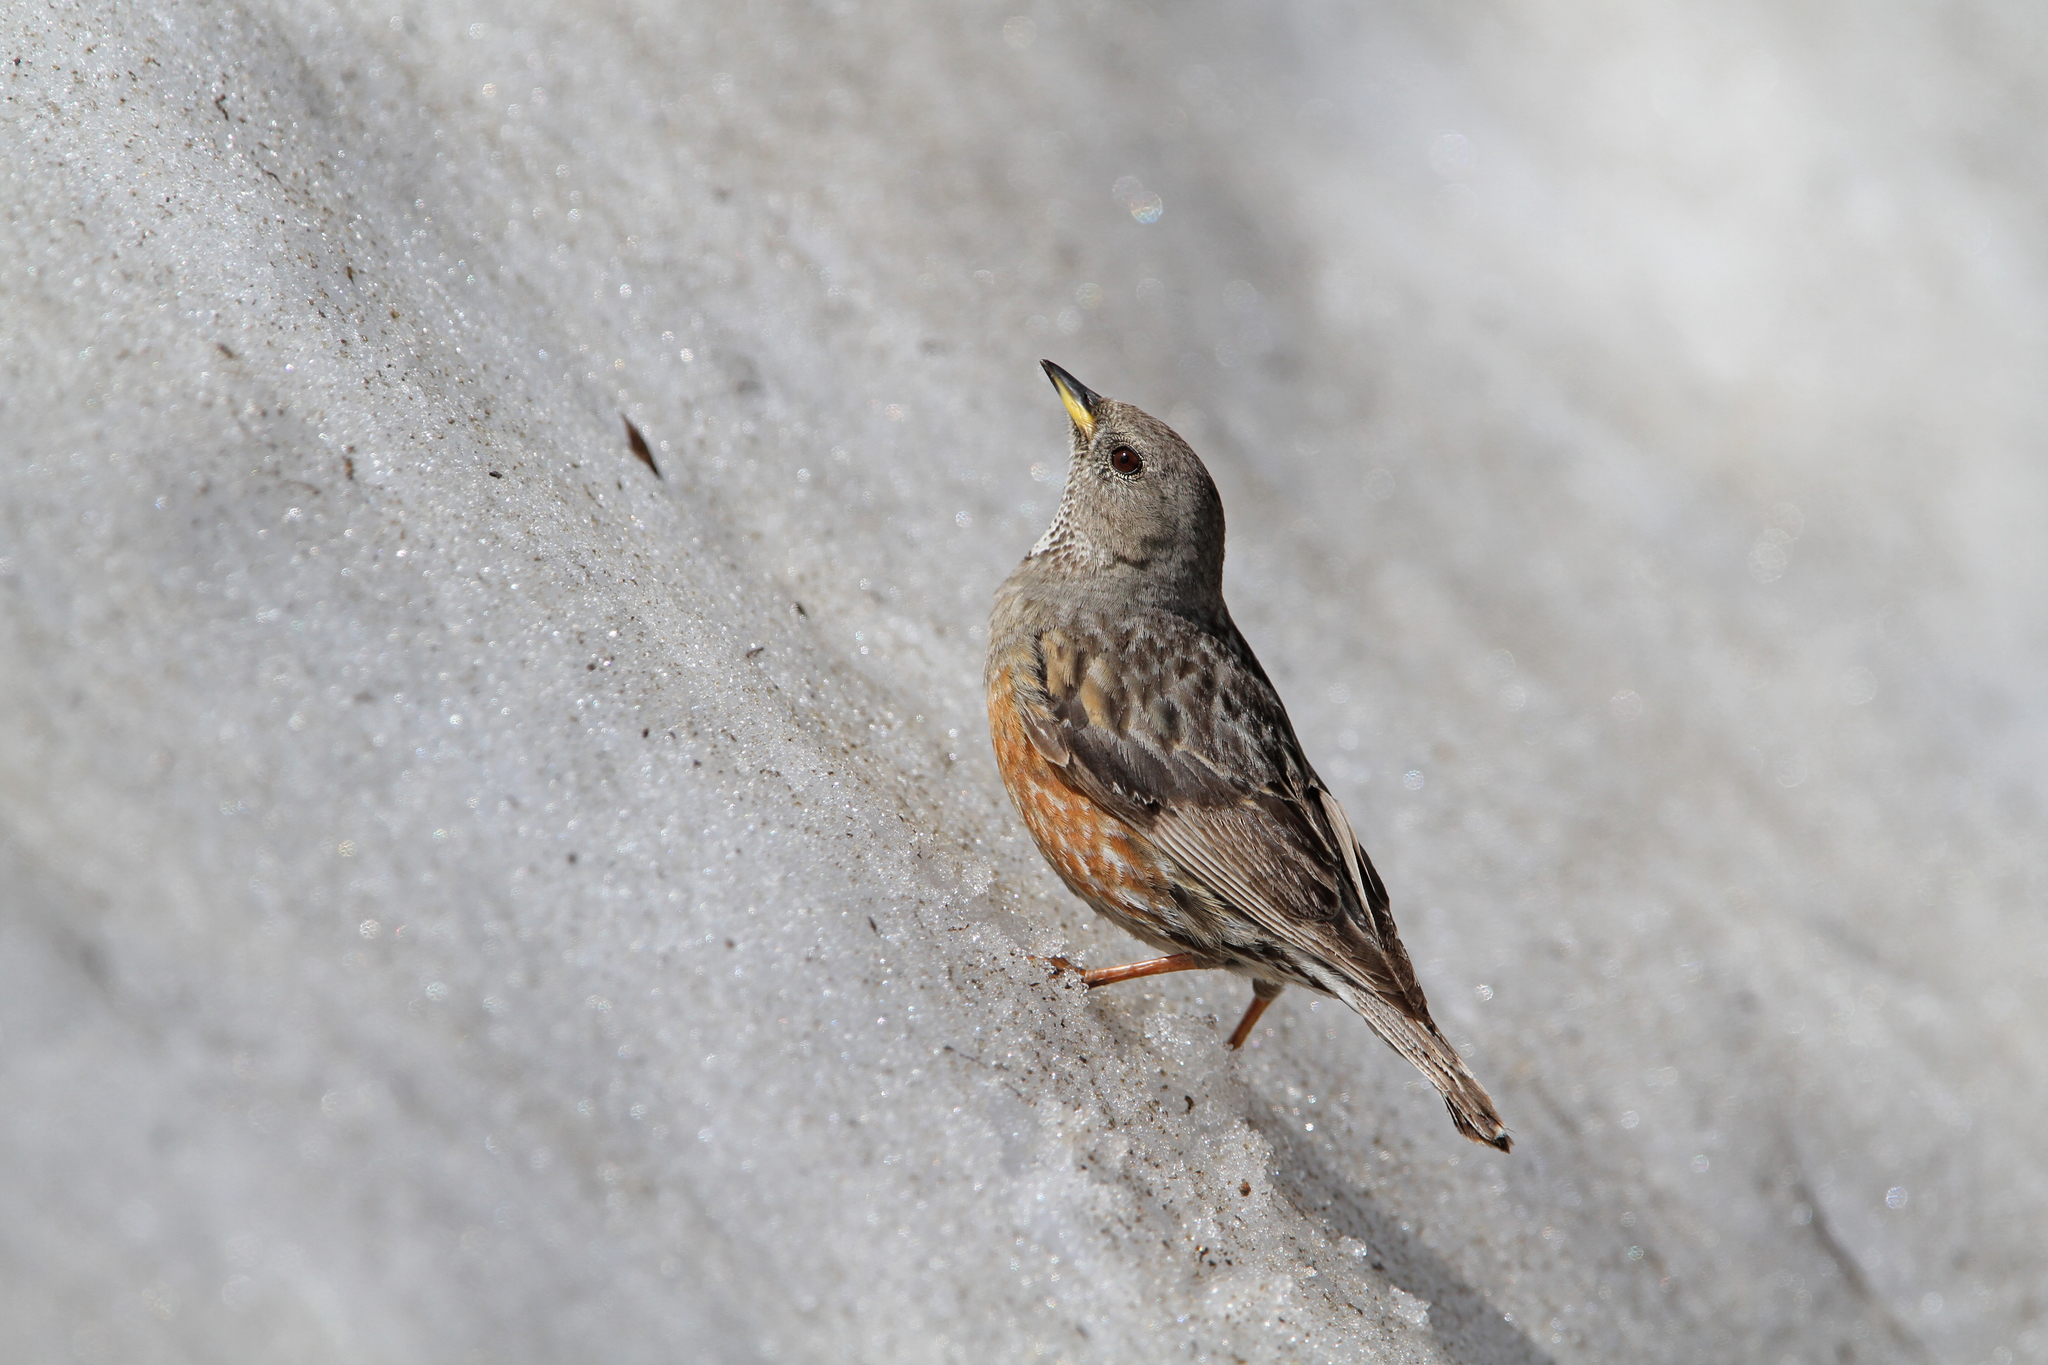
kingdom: Animalia
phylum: Chordata
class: Aves
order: Passeriformes
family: Prunellidae
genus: Prunella
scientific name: Prunella collaris
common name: Alpine accentor
